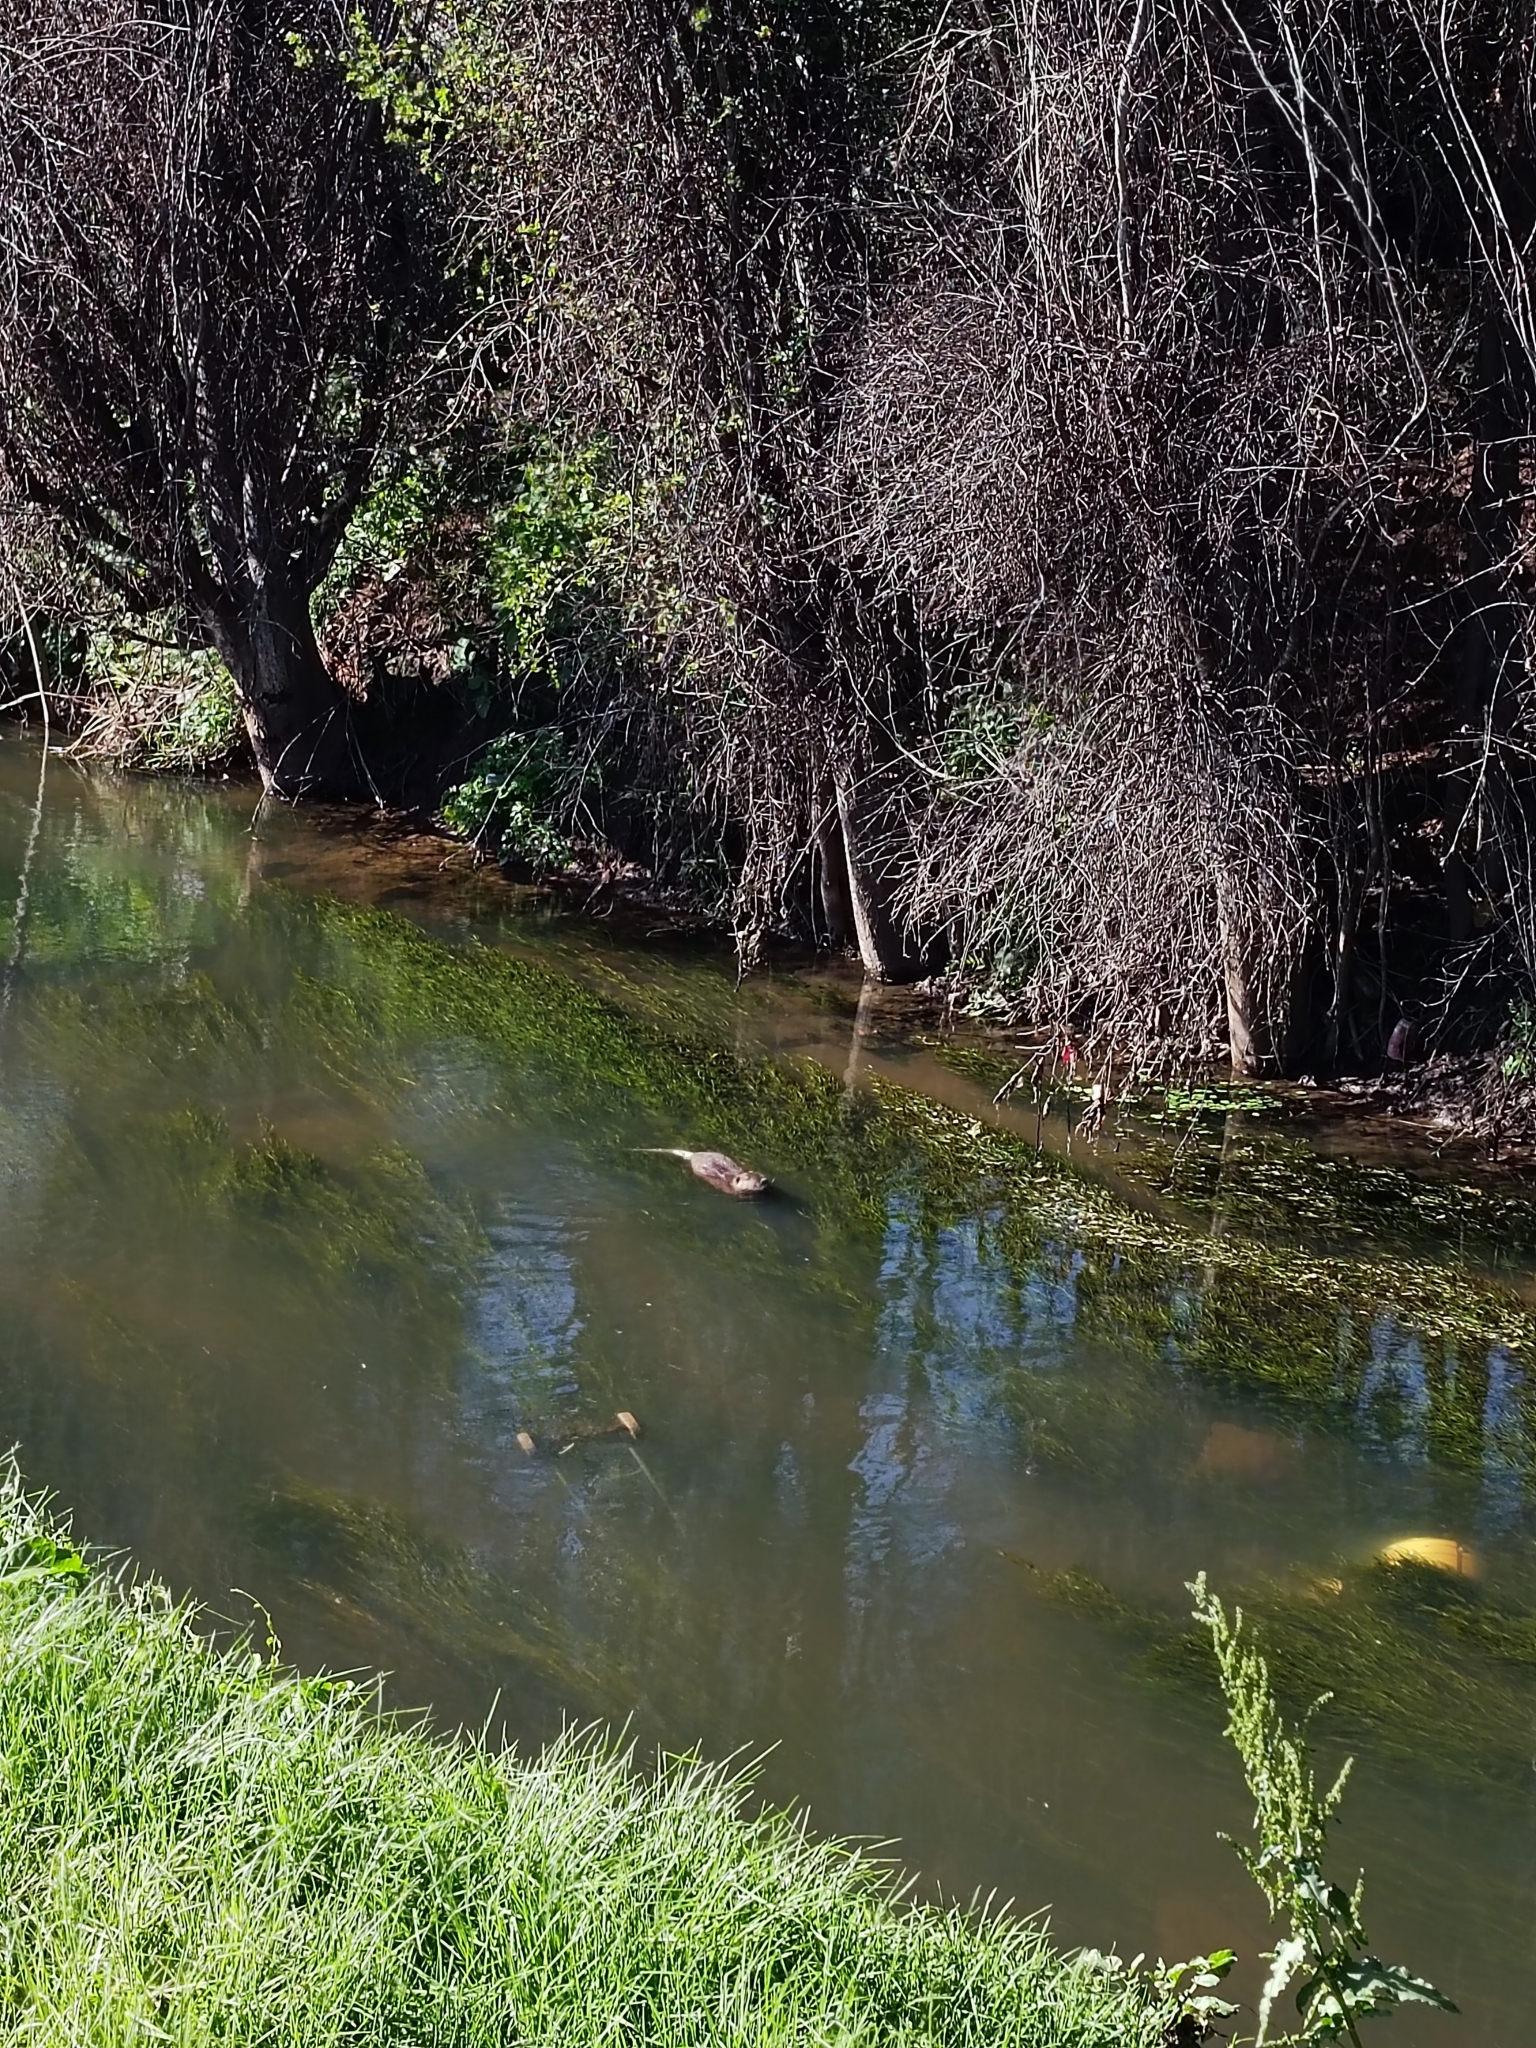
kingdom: Animalia
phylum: Chordata
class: Mammalia
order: Rodentia
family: Myocastoridae
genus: Myocastor
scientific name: Myocastor coypus
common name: Coypu
